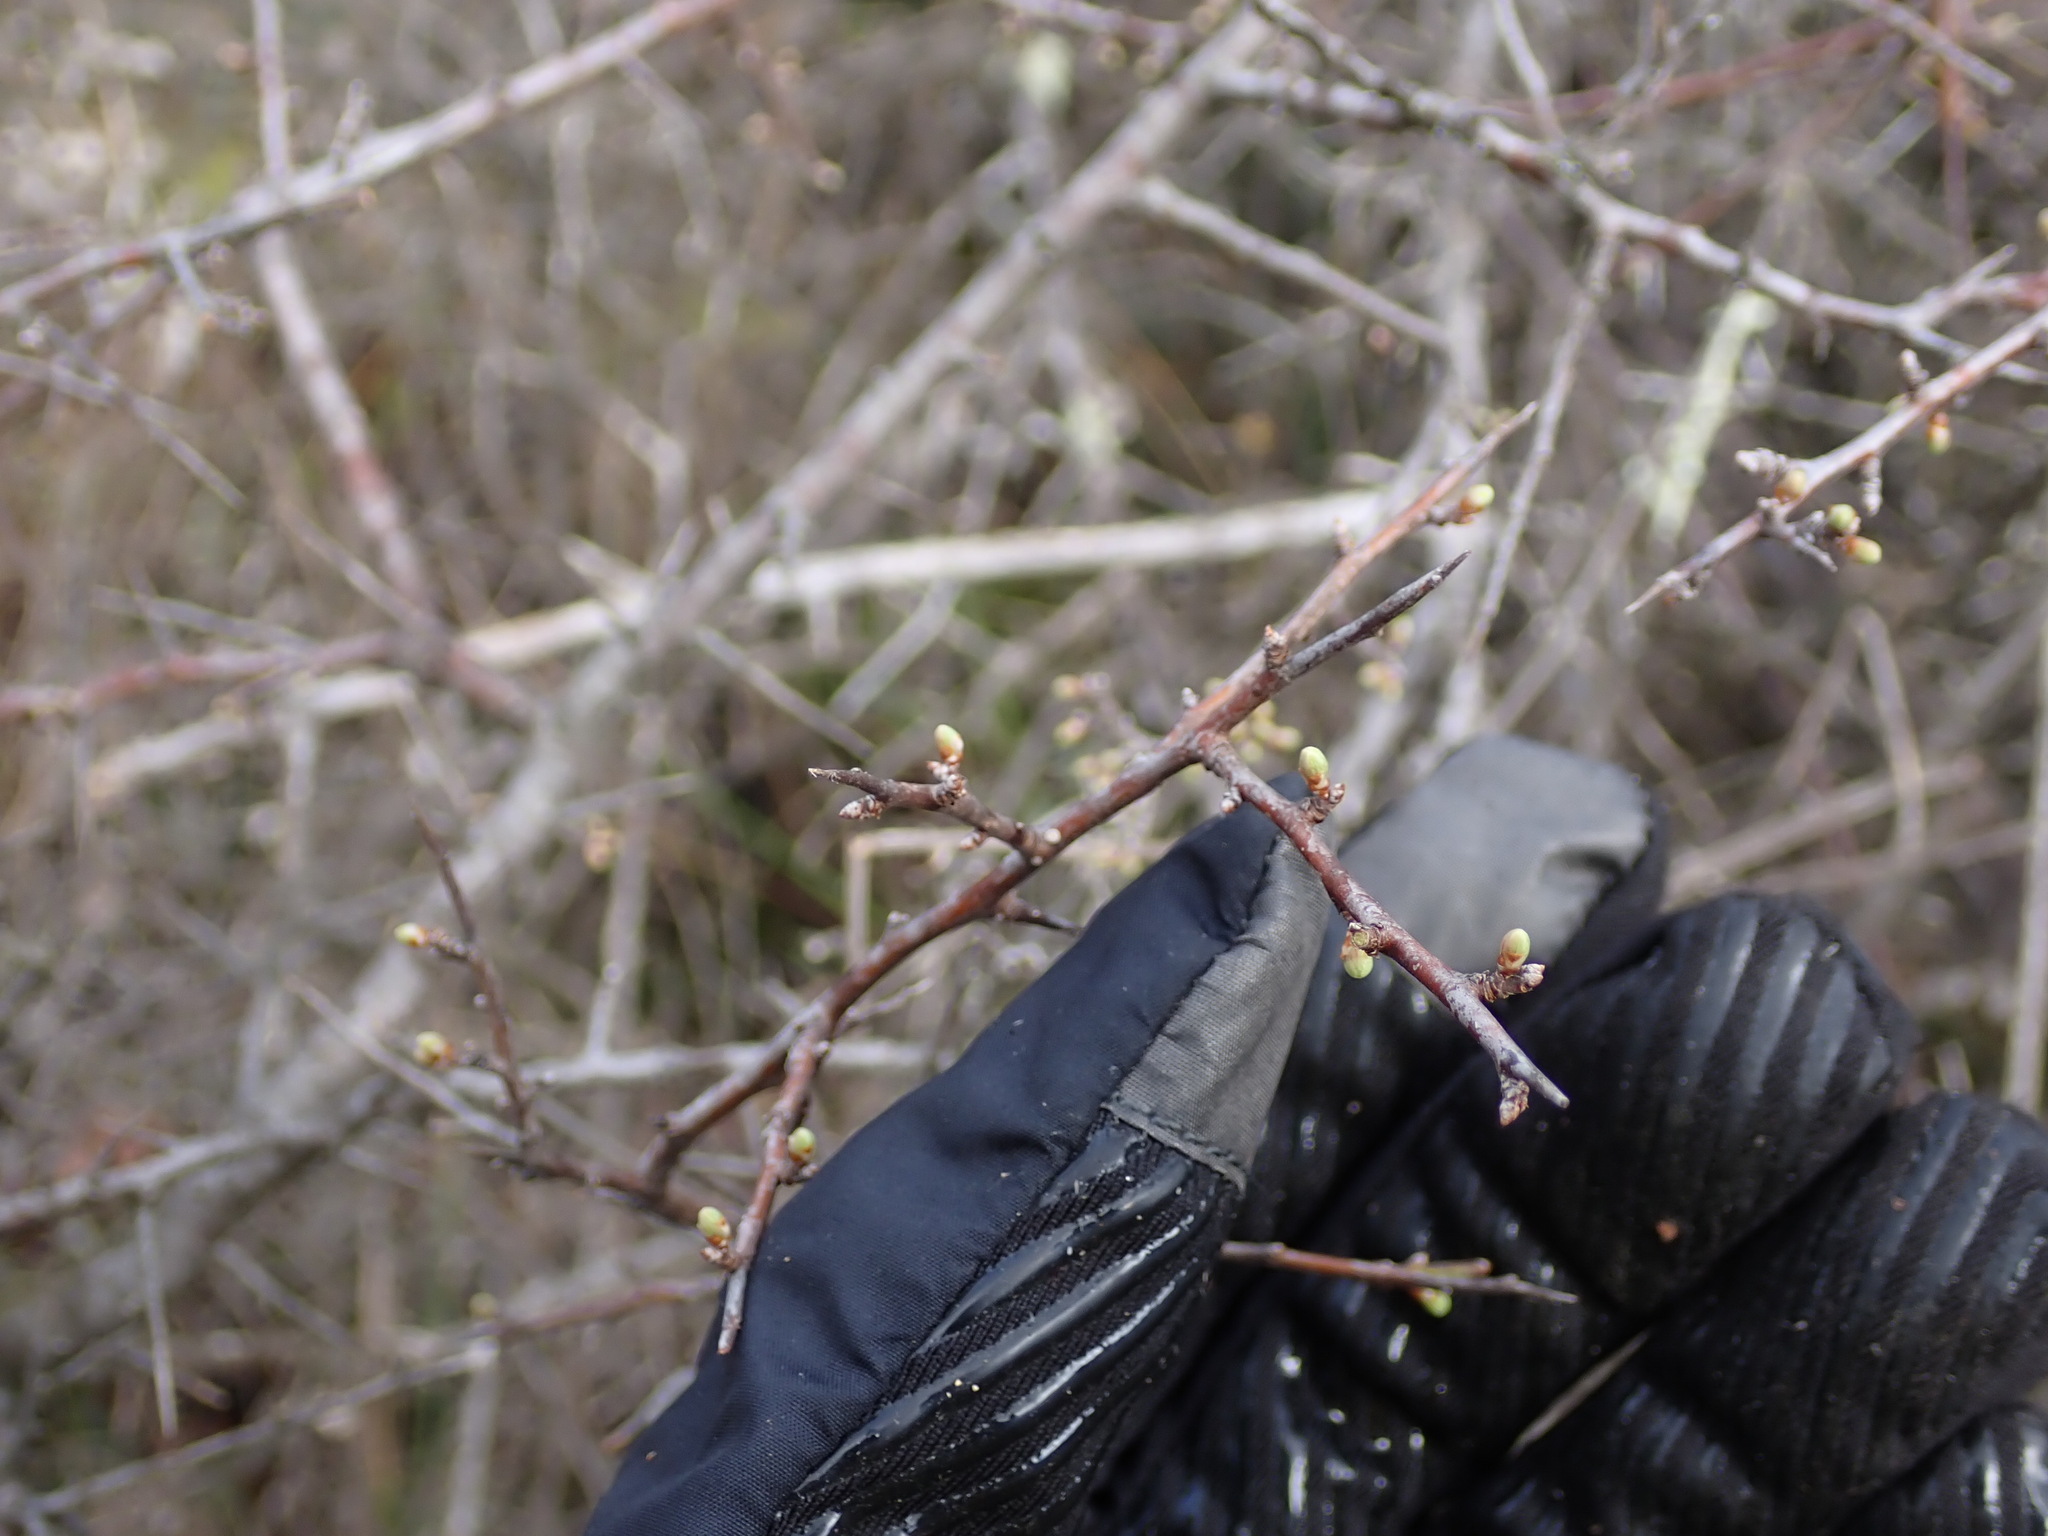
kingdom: Animalia
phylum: Arthropoda
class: Insecta
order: Lepidoptera
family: Lycaenidae
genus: Thecla
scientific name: Thecla betulae
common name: Brown hairstreak
